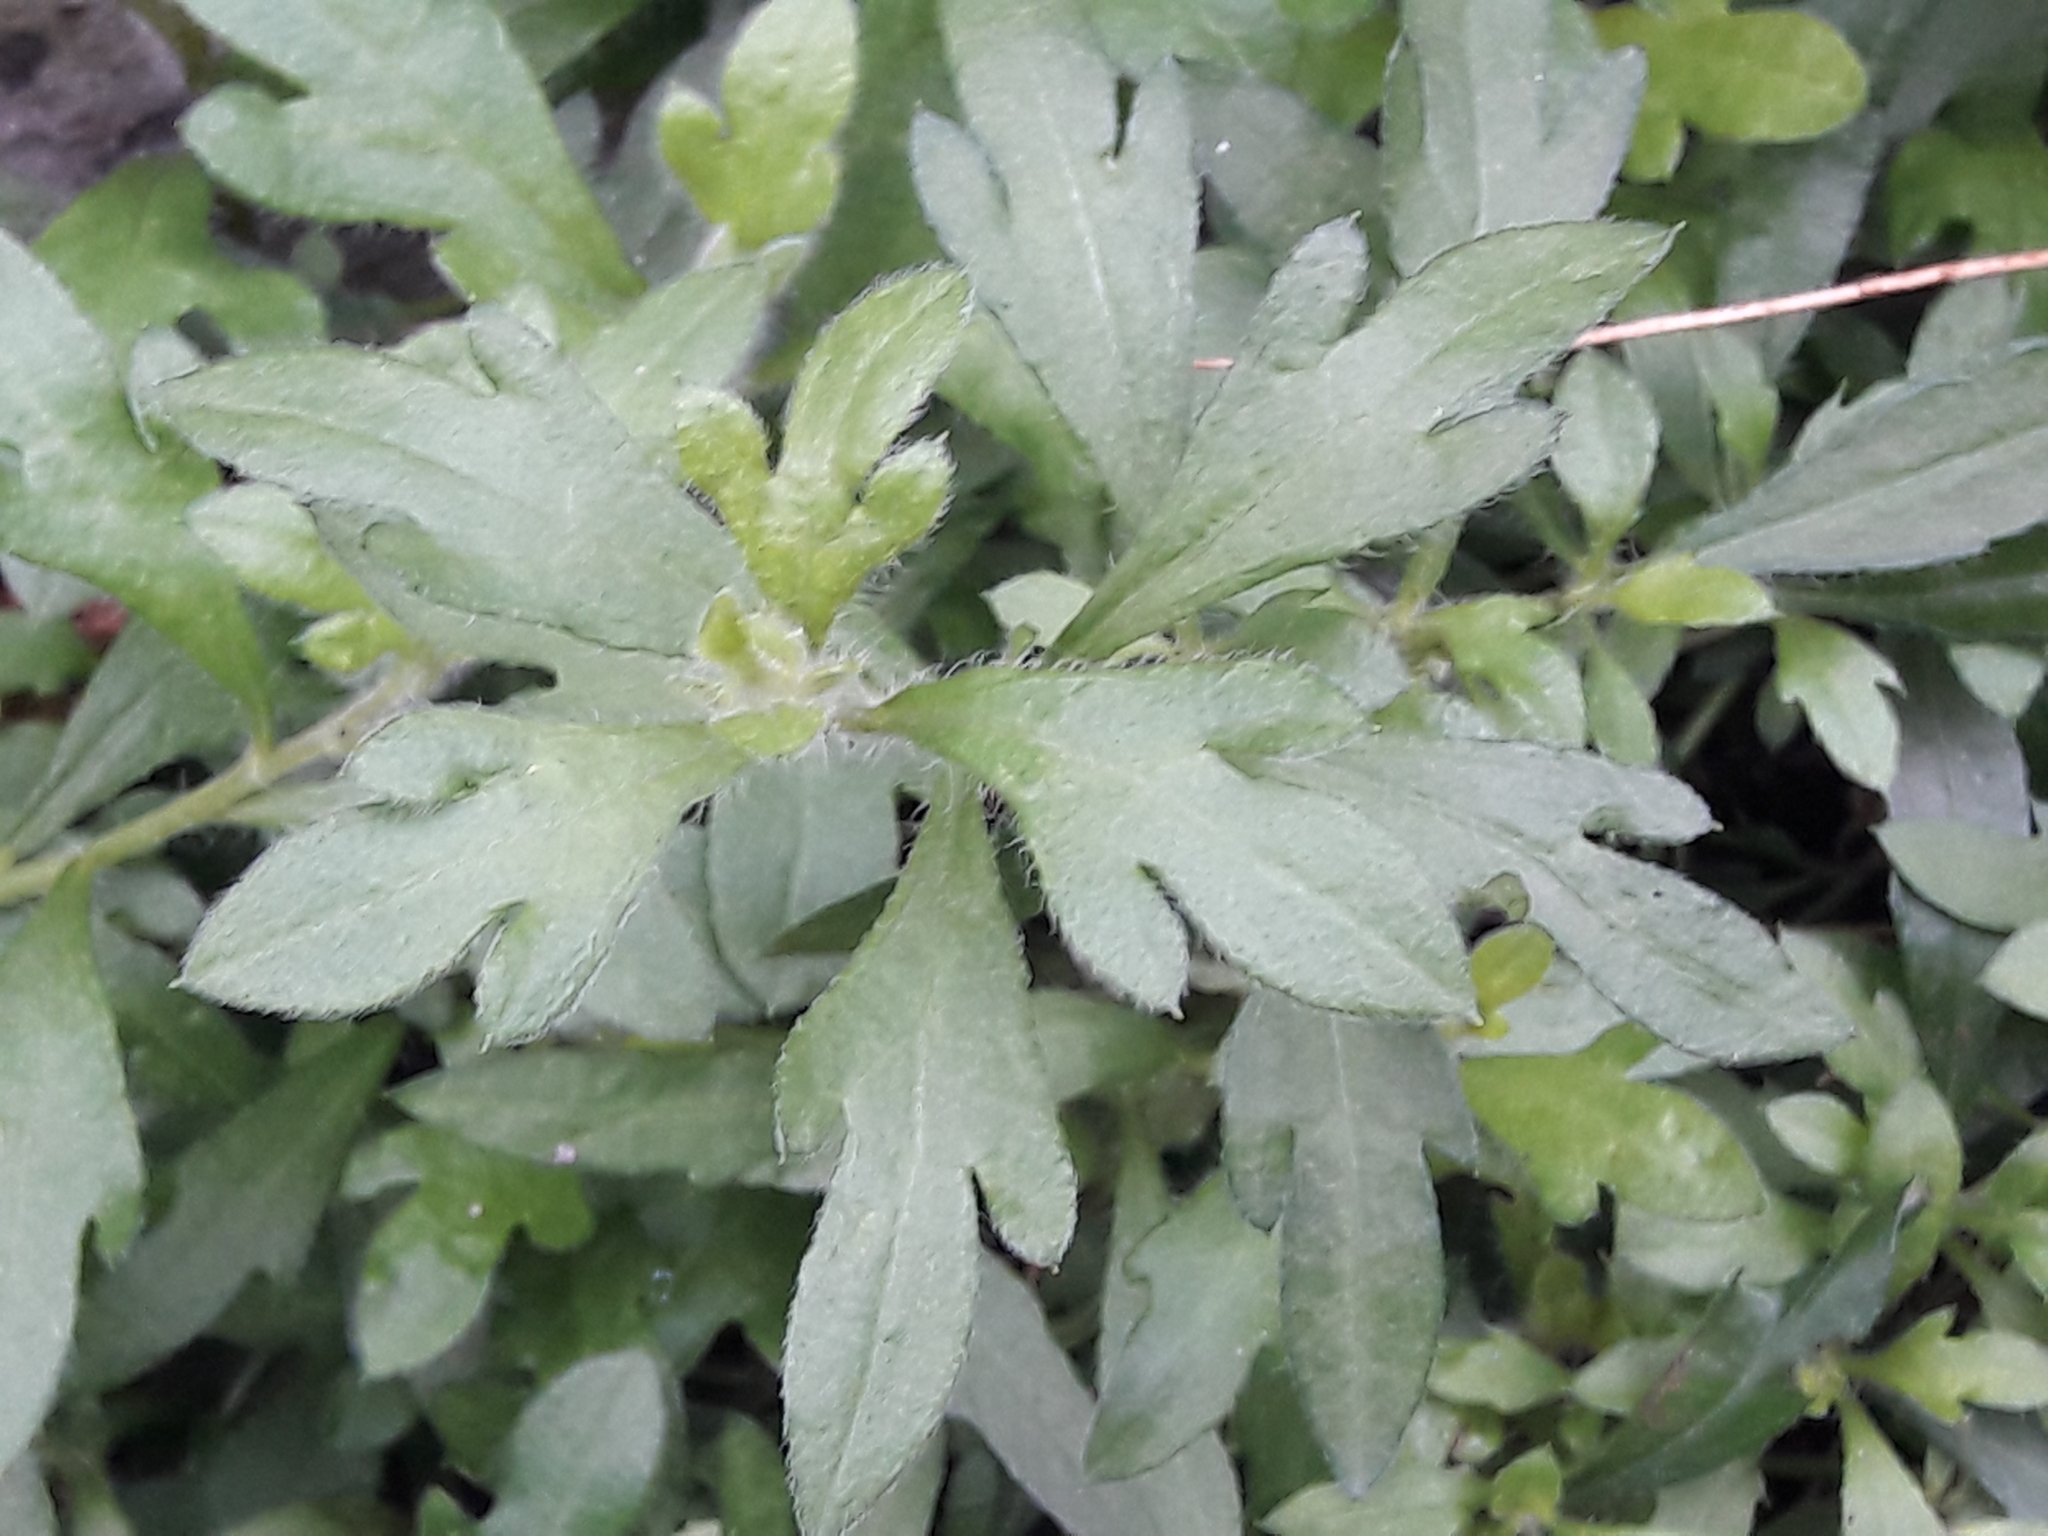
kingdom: Plantae
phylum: Tracheophyta
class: Magnoliopsida
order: Asterales
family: Asteraceae
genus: Erigeron
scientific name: Erigeron karvinskianus
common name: Mexican fleabane
